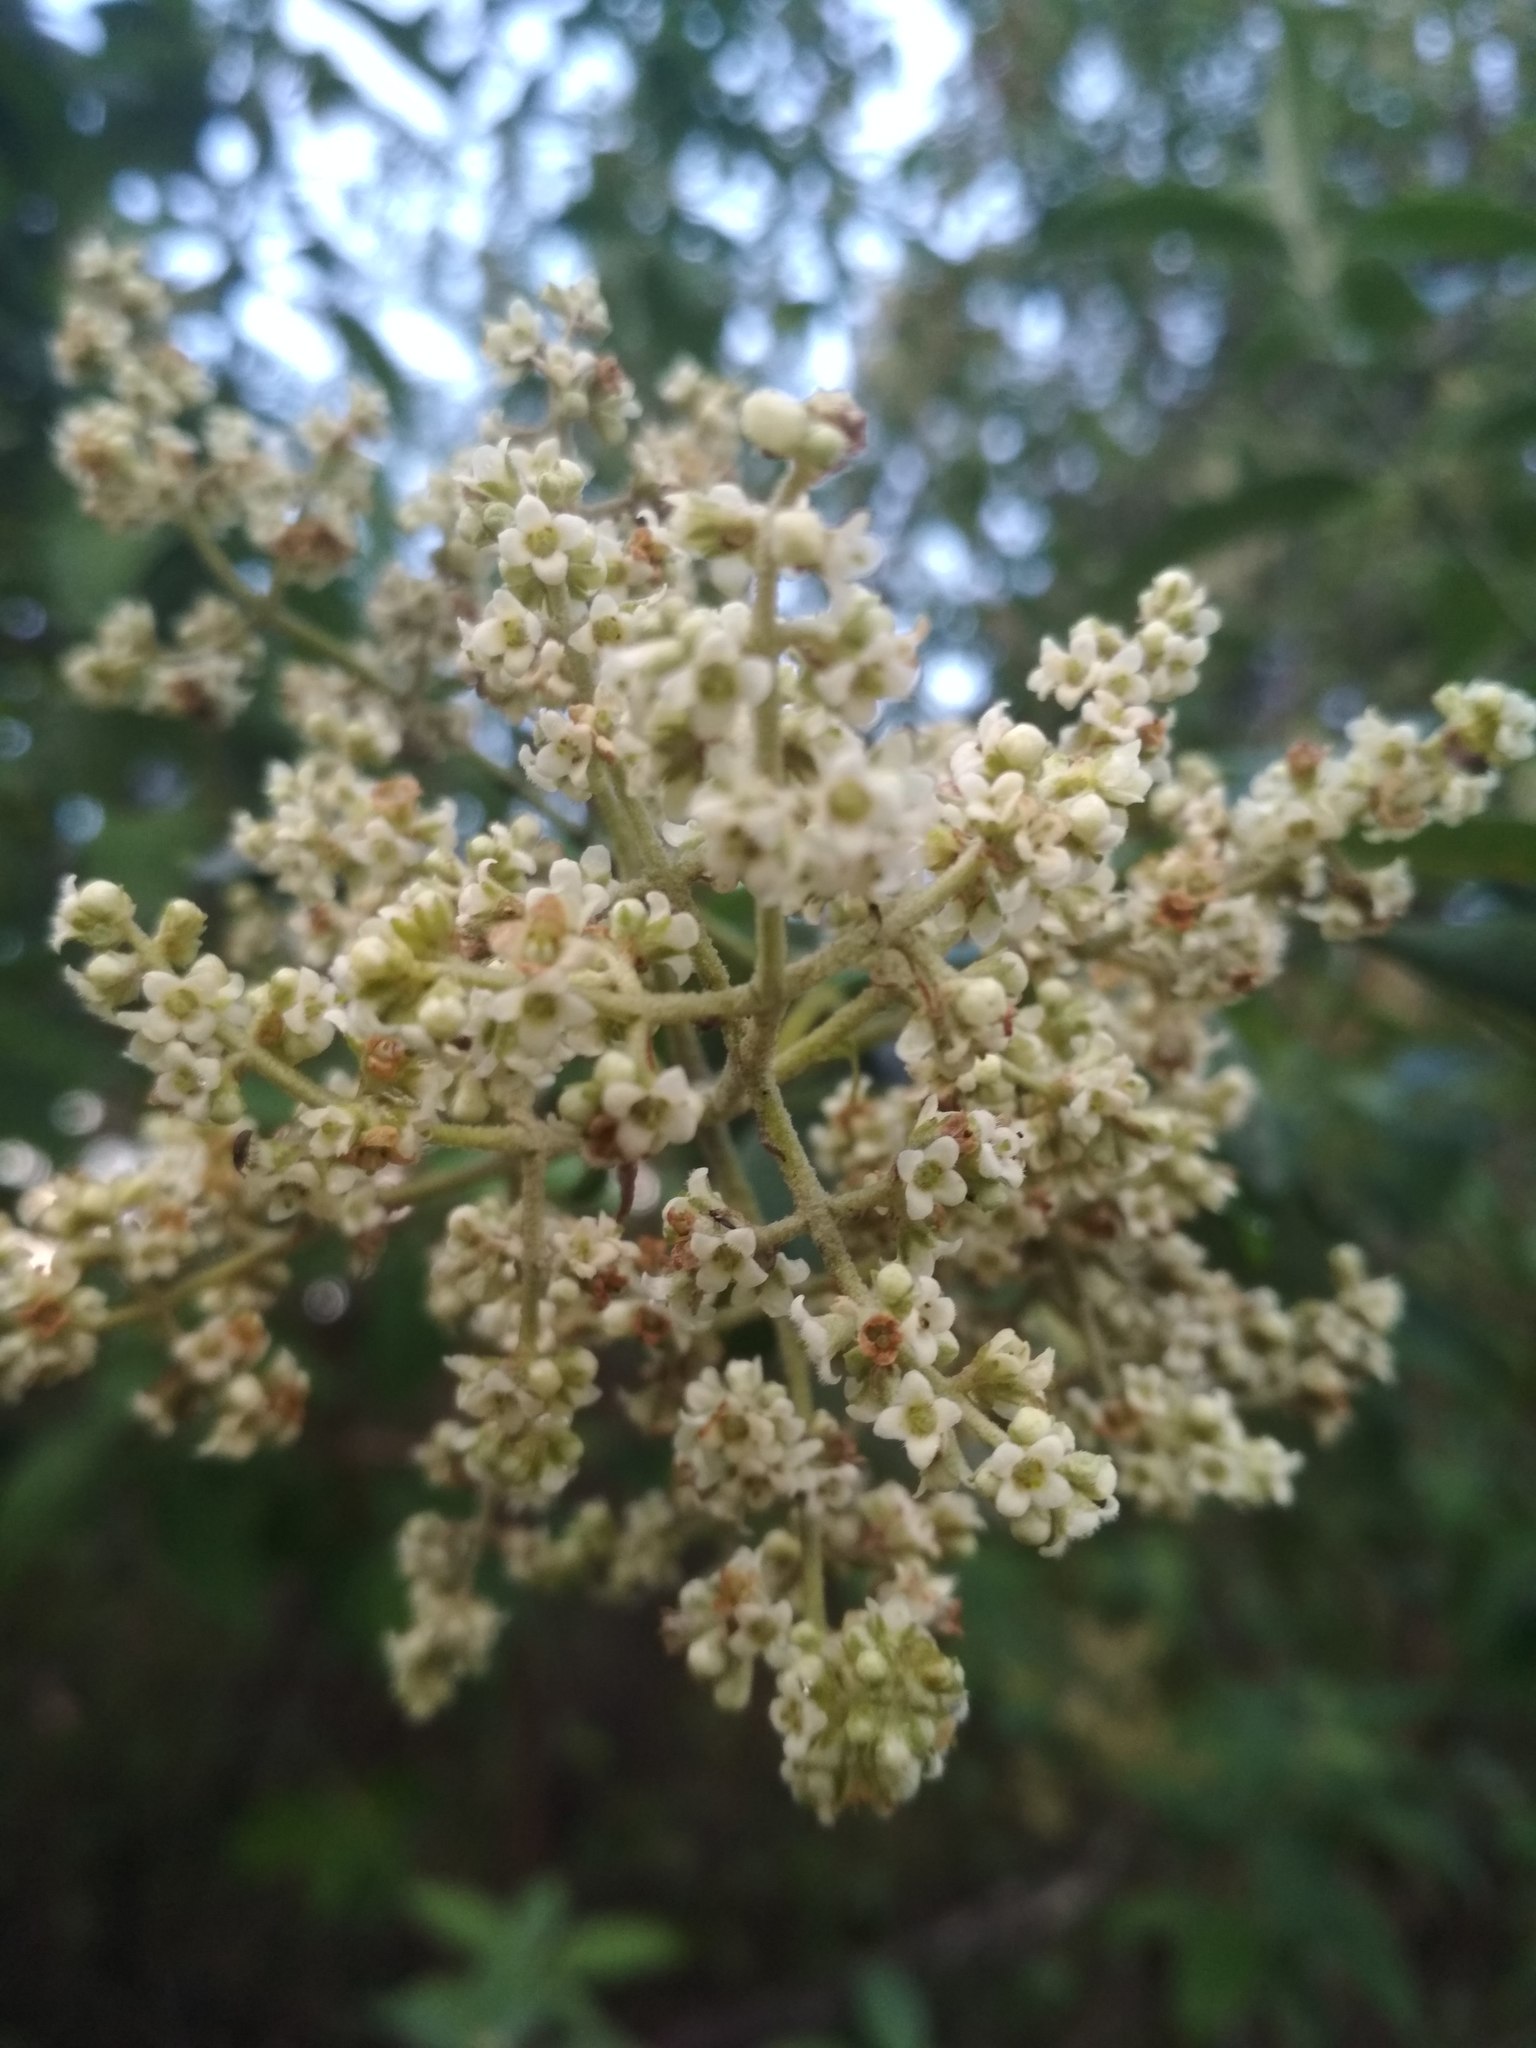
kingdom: Plantae
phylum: Tracheophyta
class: Magnoliopsida
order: Lamiales
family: Scrophulariaceae
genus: Buddleja
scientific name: Buddleja cordata
